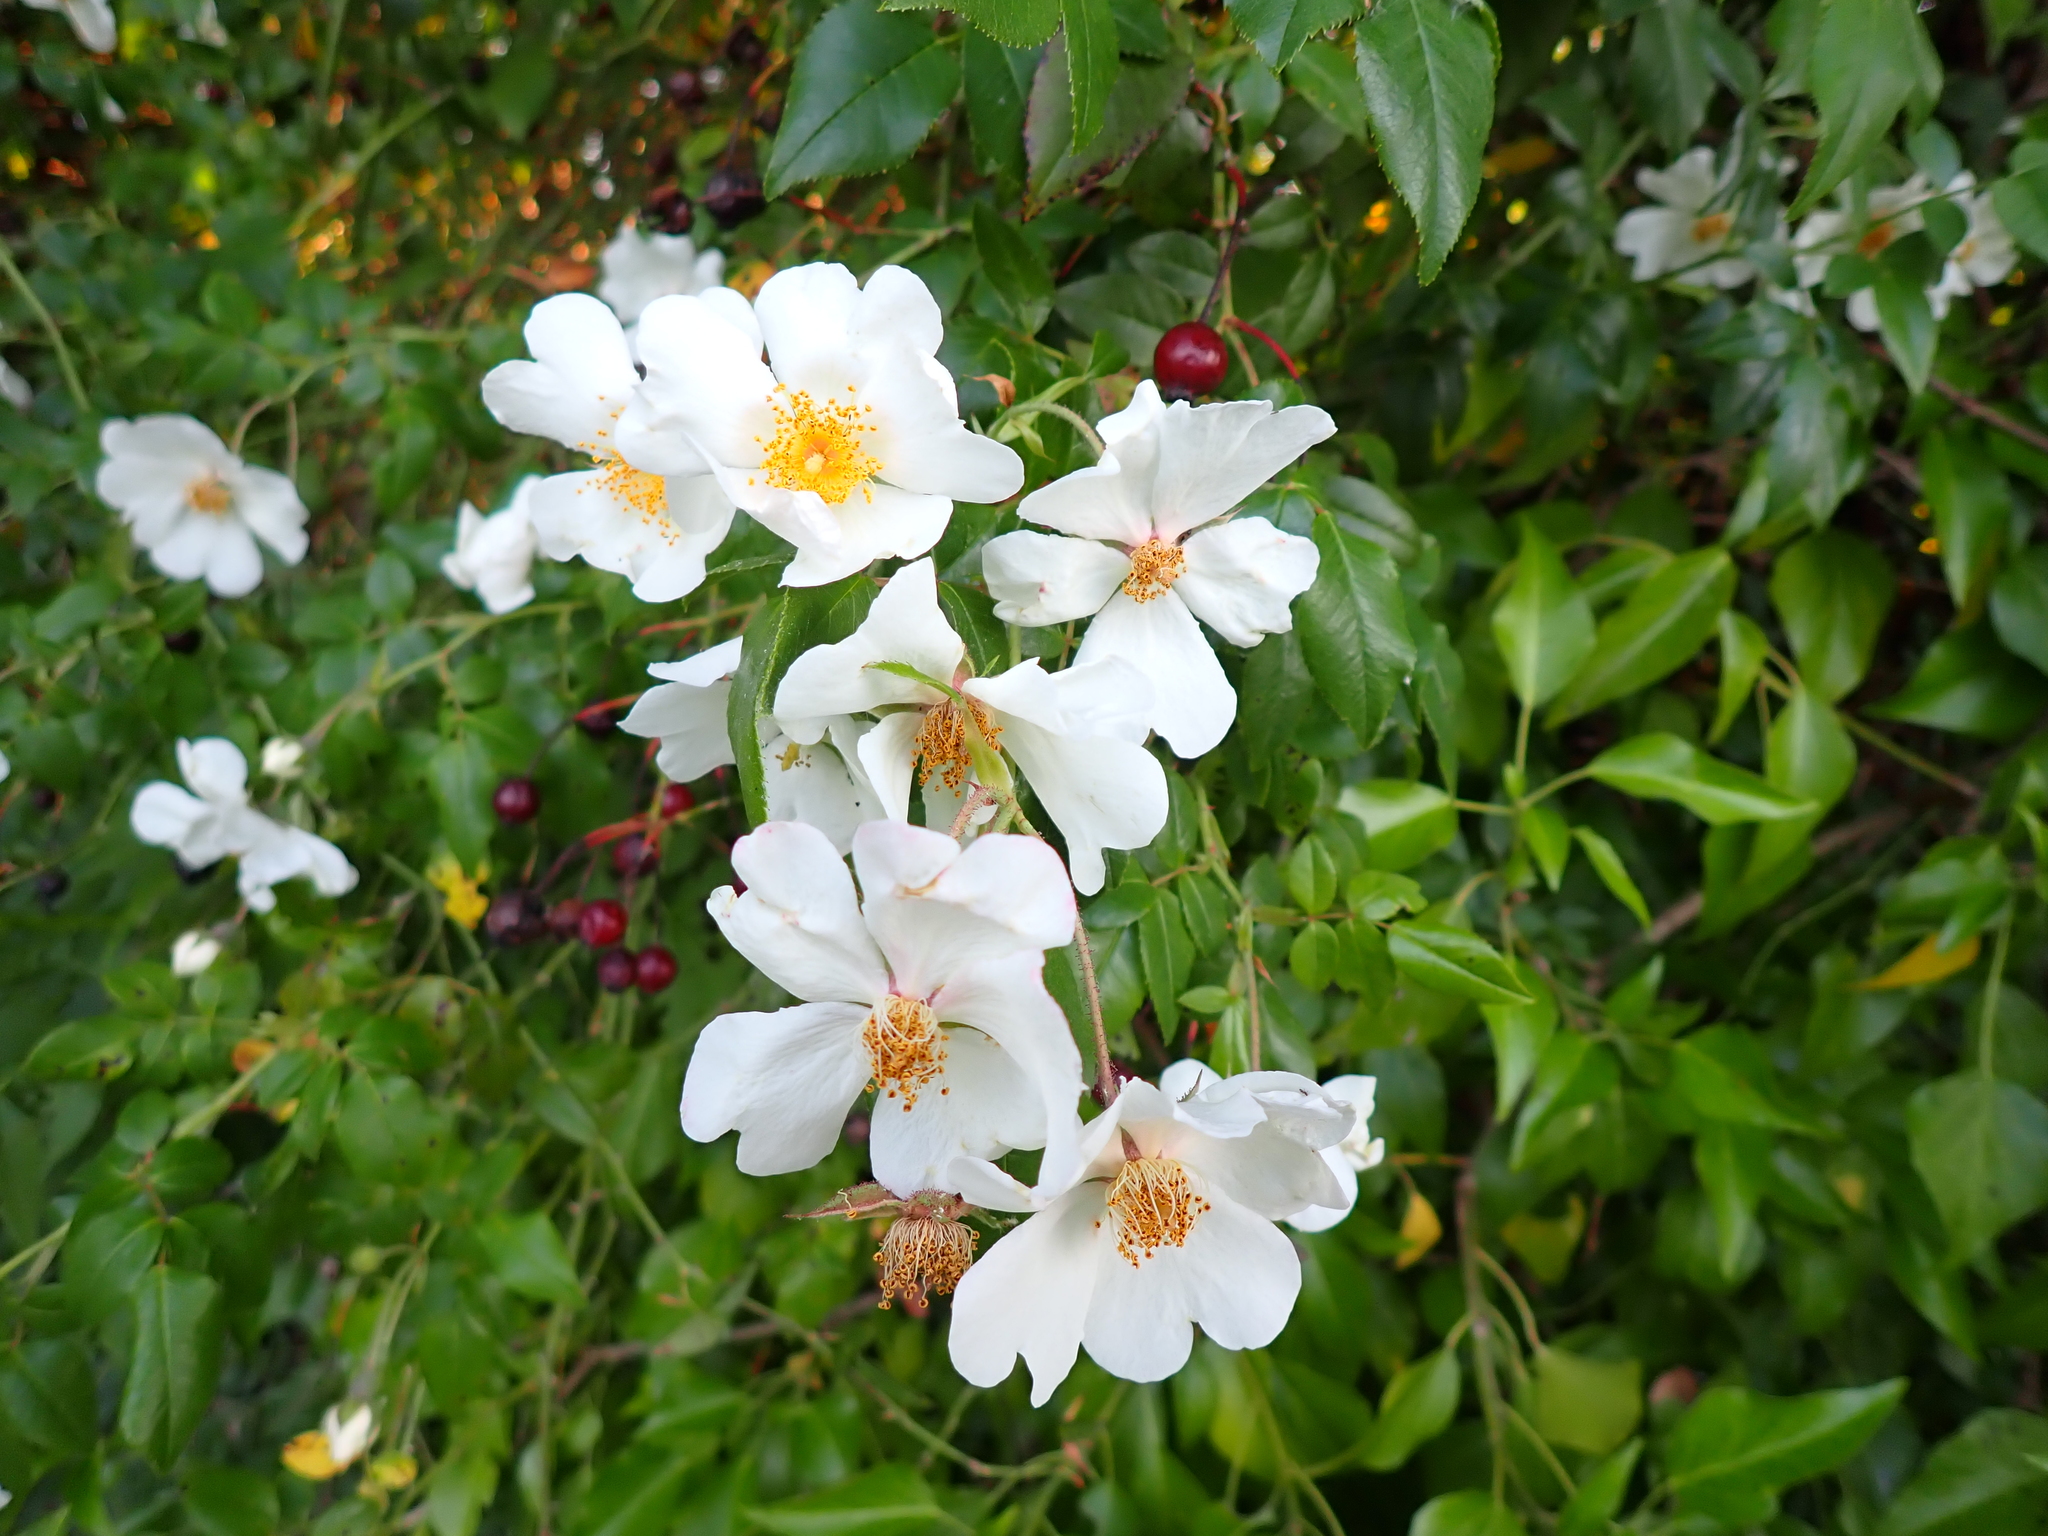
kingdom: Plantae
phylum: Tracheophyta
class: Magnoliopsida
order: Rosales
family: Rosaceae
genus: Rosa
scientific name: Rosa sempervirens
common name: Evergreen rose
